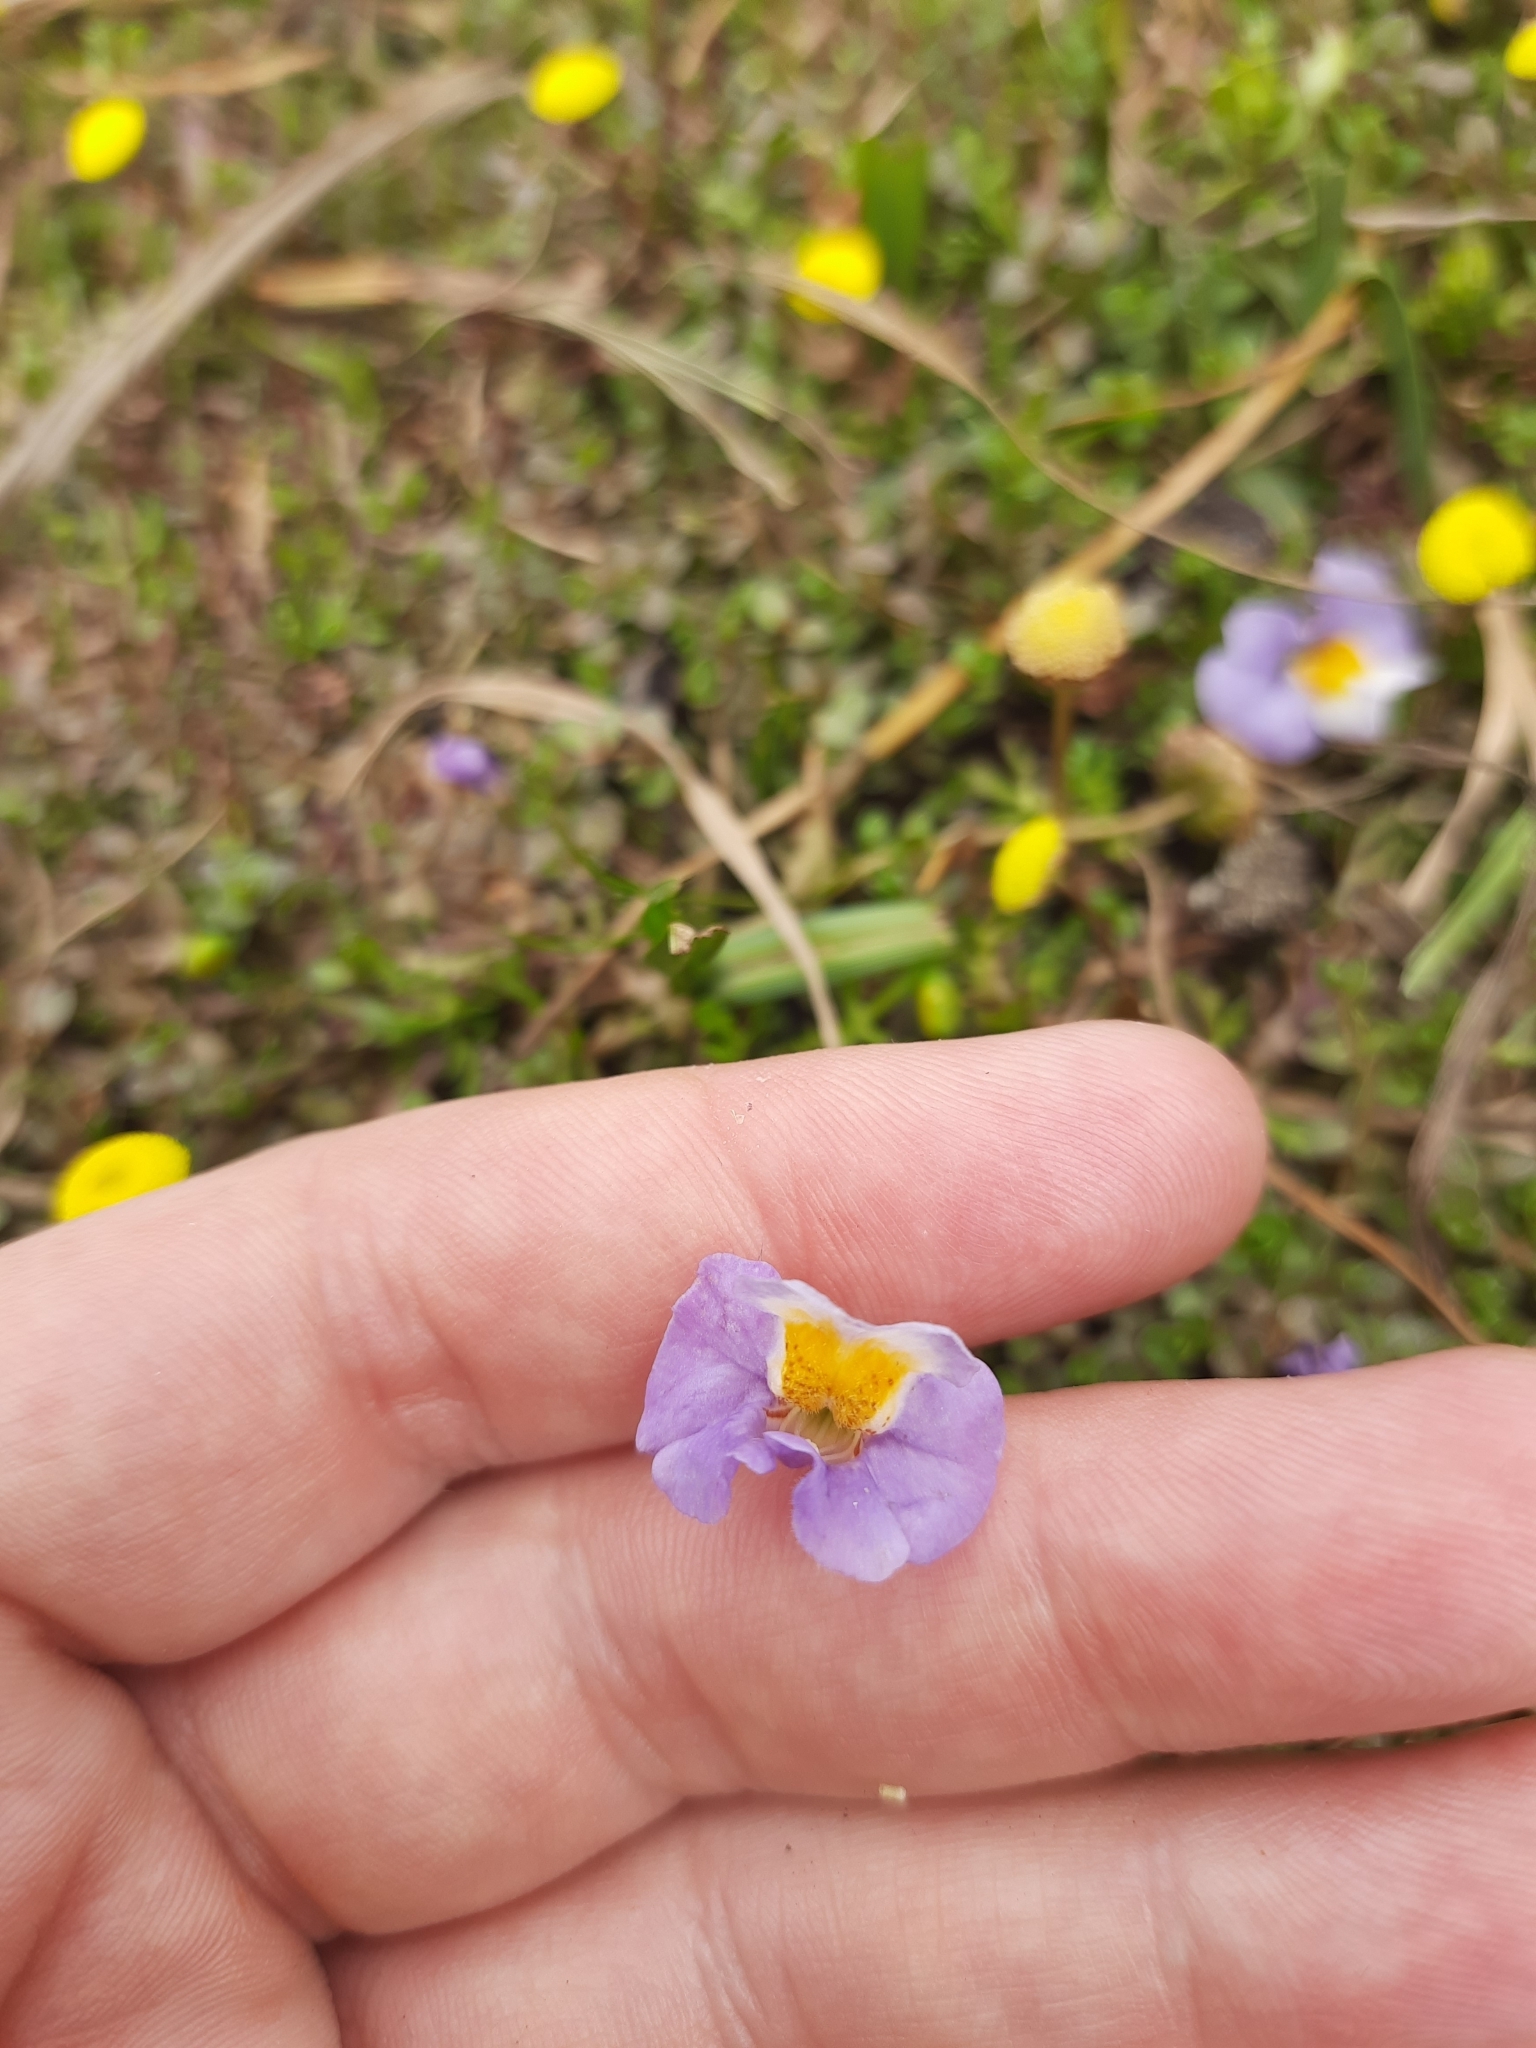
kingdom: Plantae
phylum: Tracheophyta
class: Magnoliopsida
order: Lamiales
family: Phrymaceae
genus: Thyridia
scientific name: Thyridia repens
